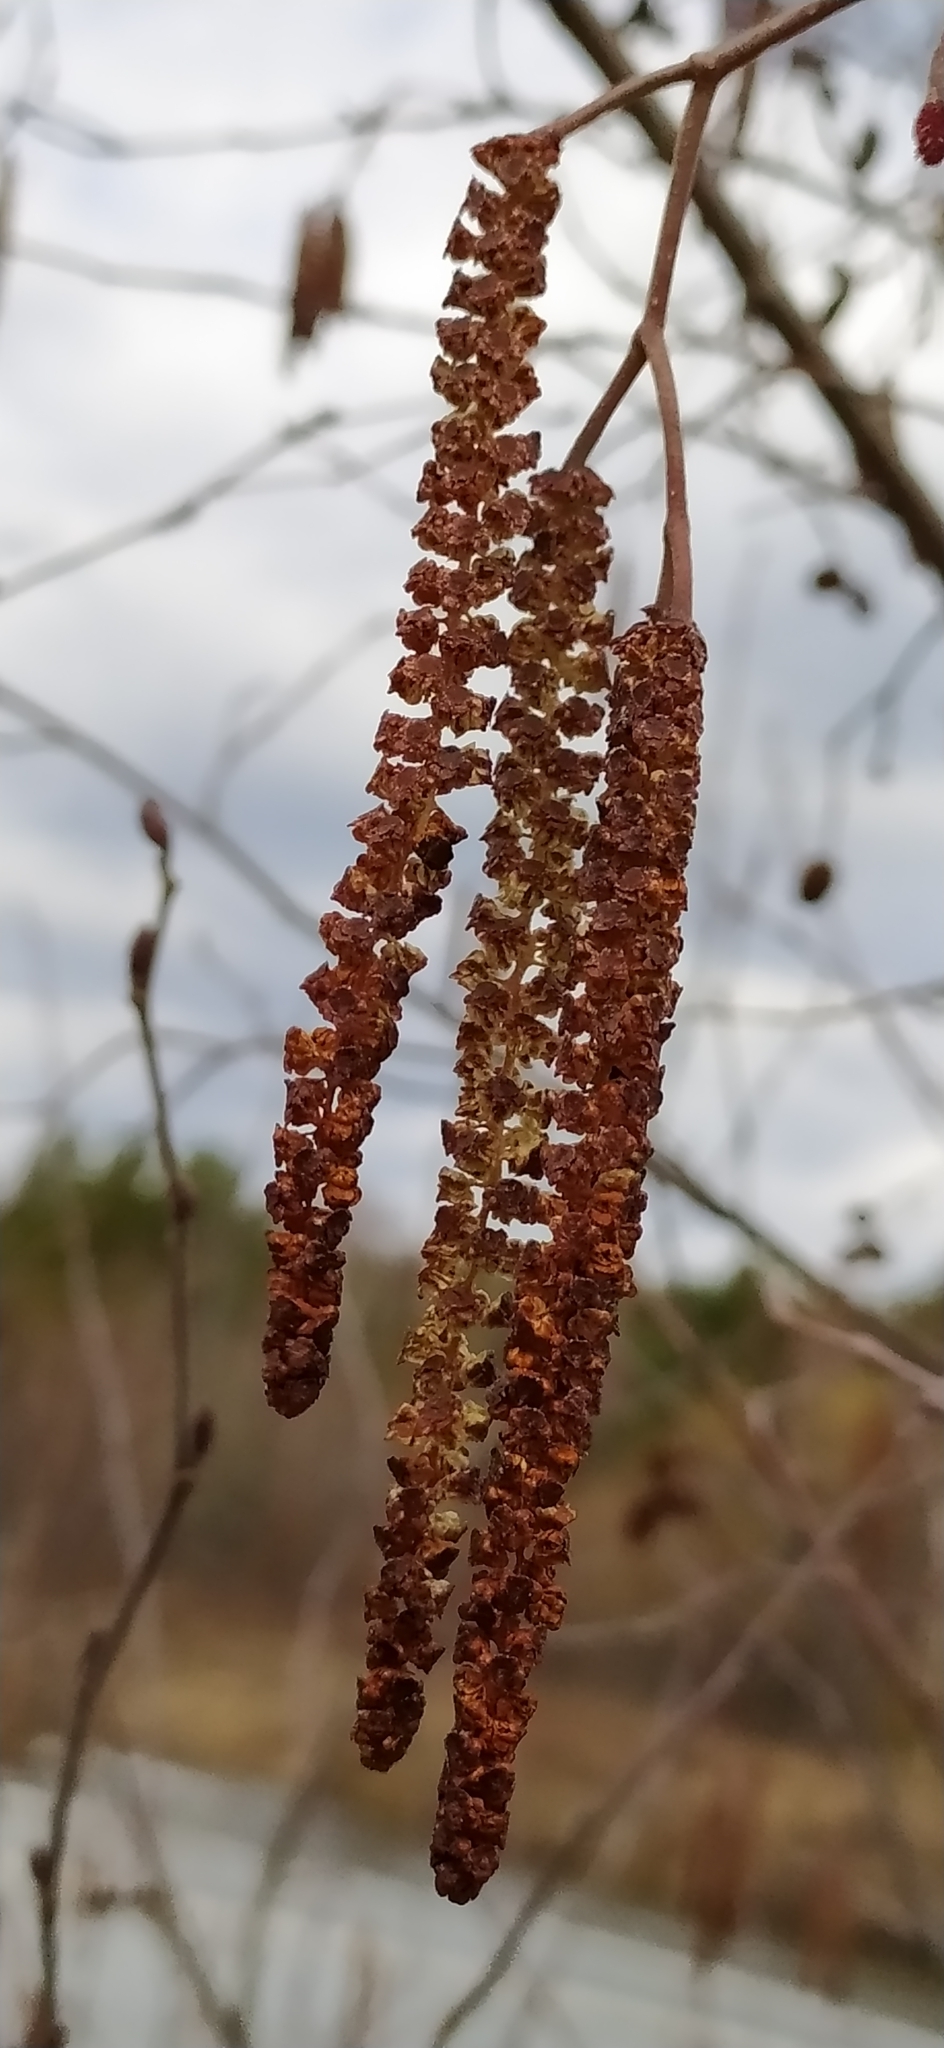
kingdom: Plantae
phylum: Tracheophyta
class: Magnoliopsida
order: Fagales
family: Betulaceae
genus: Alnus
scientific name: Alnus incana
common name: Grey alder
